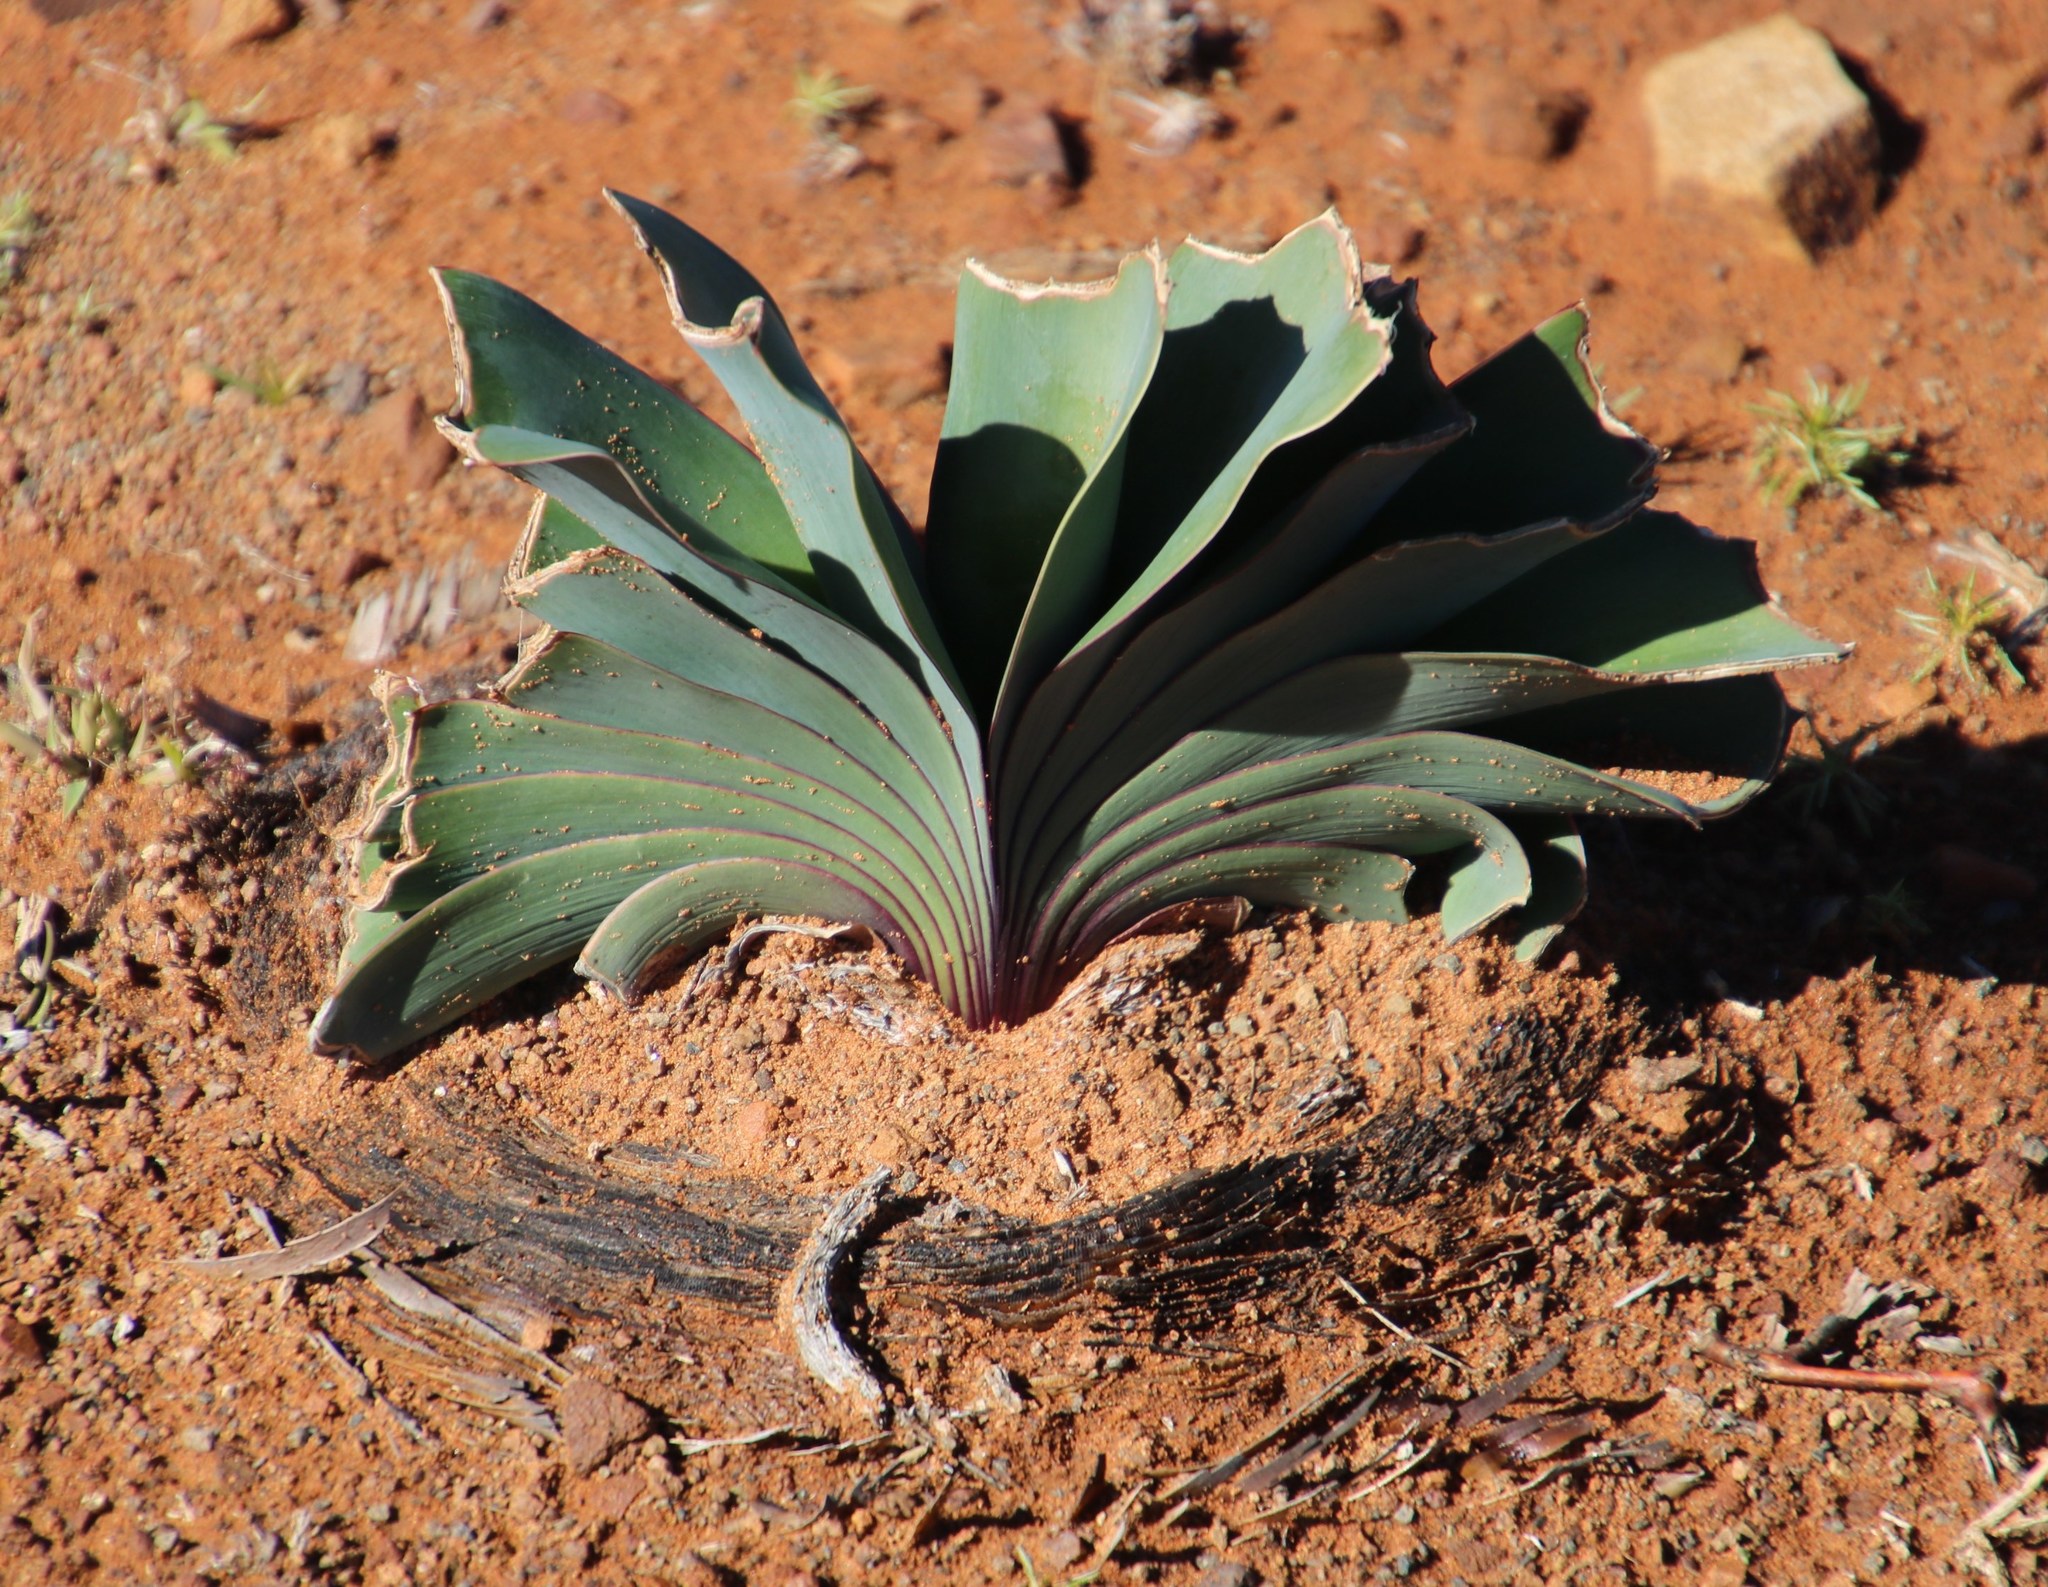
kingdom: Plantae
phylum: Tracheophyta
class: Liliopsida
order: Asparagales
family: Amaryllidaceae
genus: Boophone
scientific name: Boophone disticha
